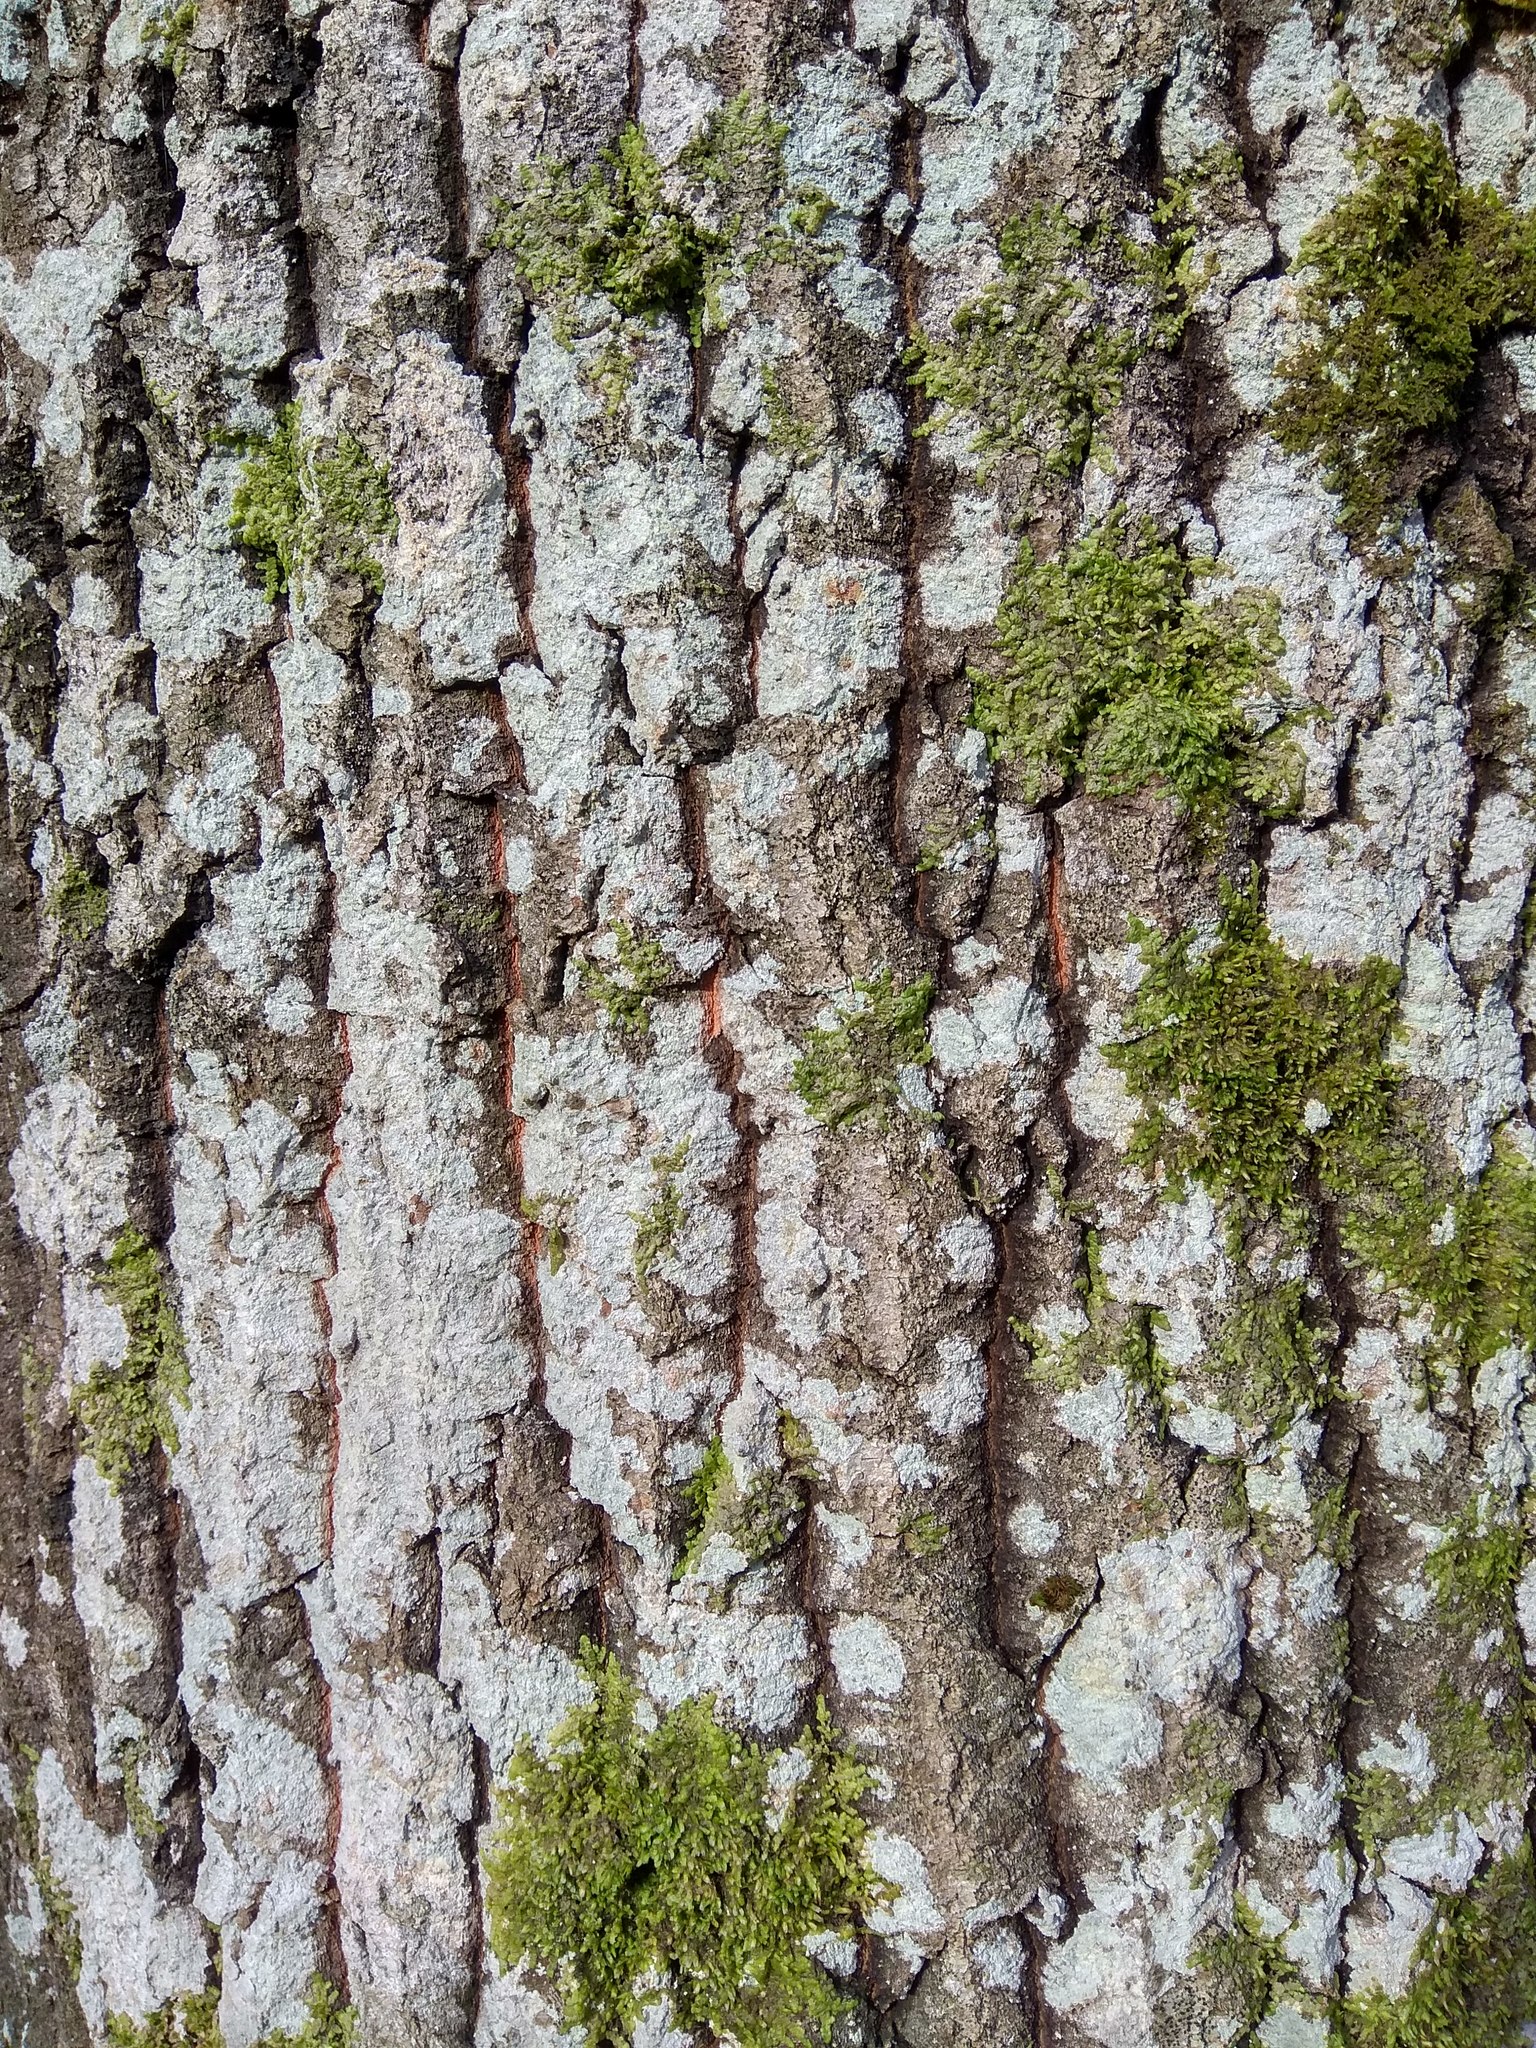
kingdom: Plantae
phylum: Tracheophyta
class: Magnoliopsida
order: Malpighiales
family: Salicaceae
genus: Populus
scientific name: Populus tremula
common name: European aspen
